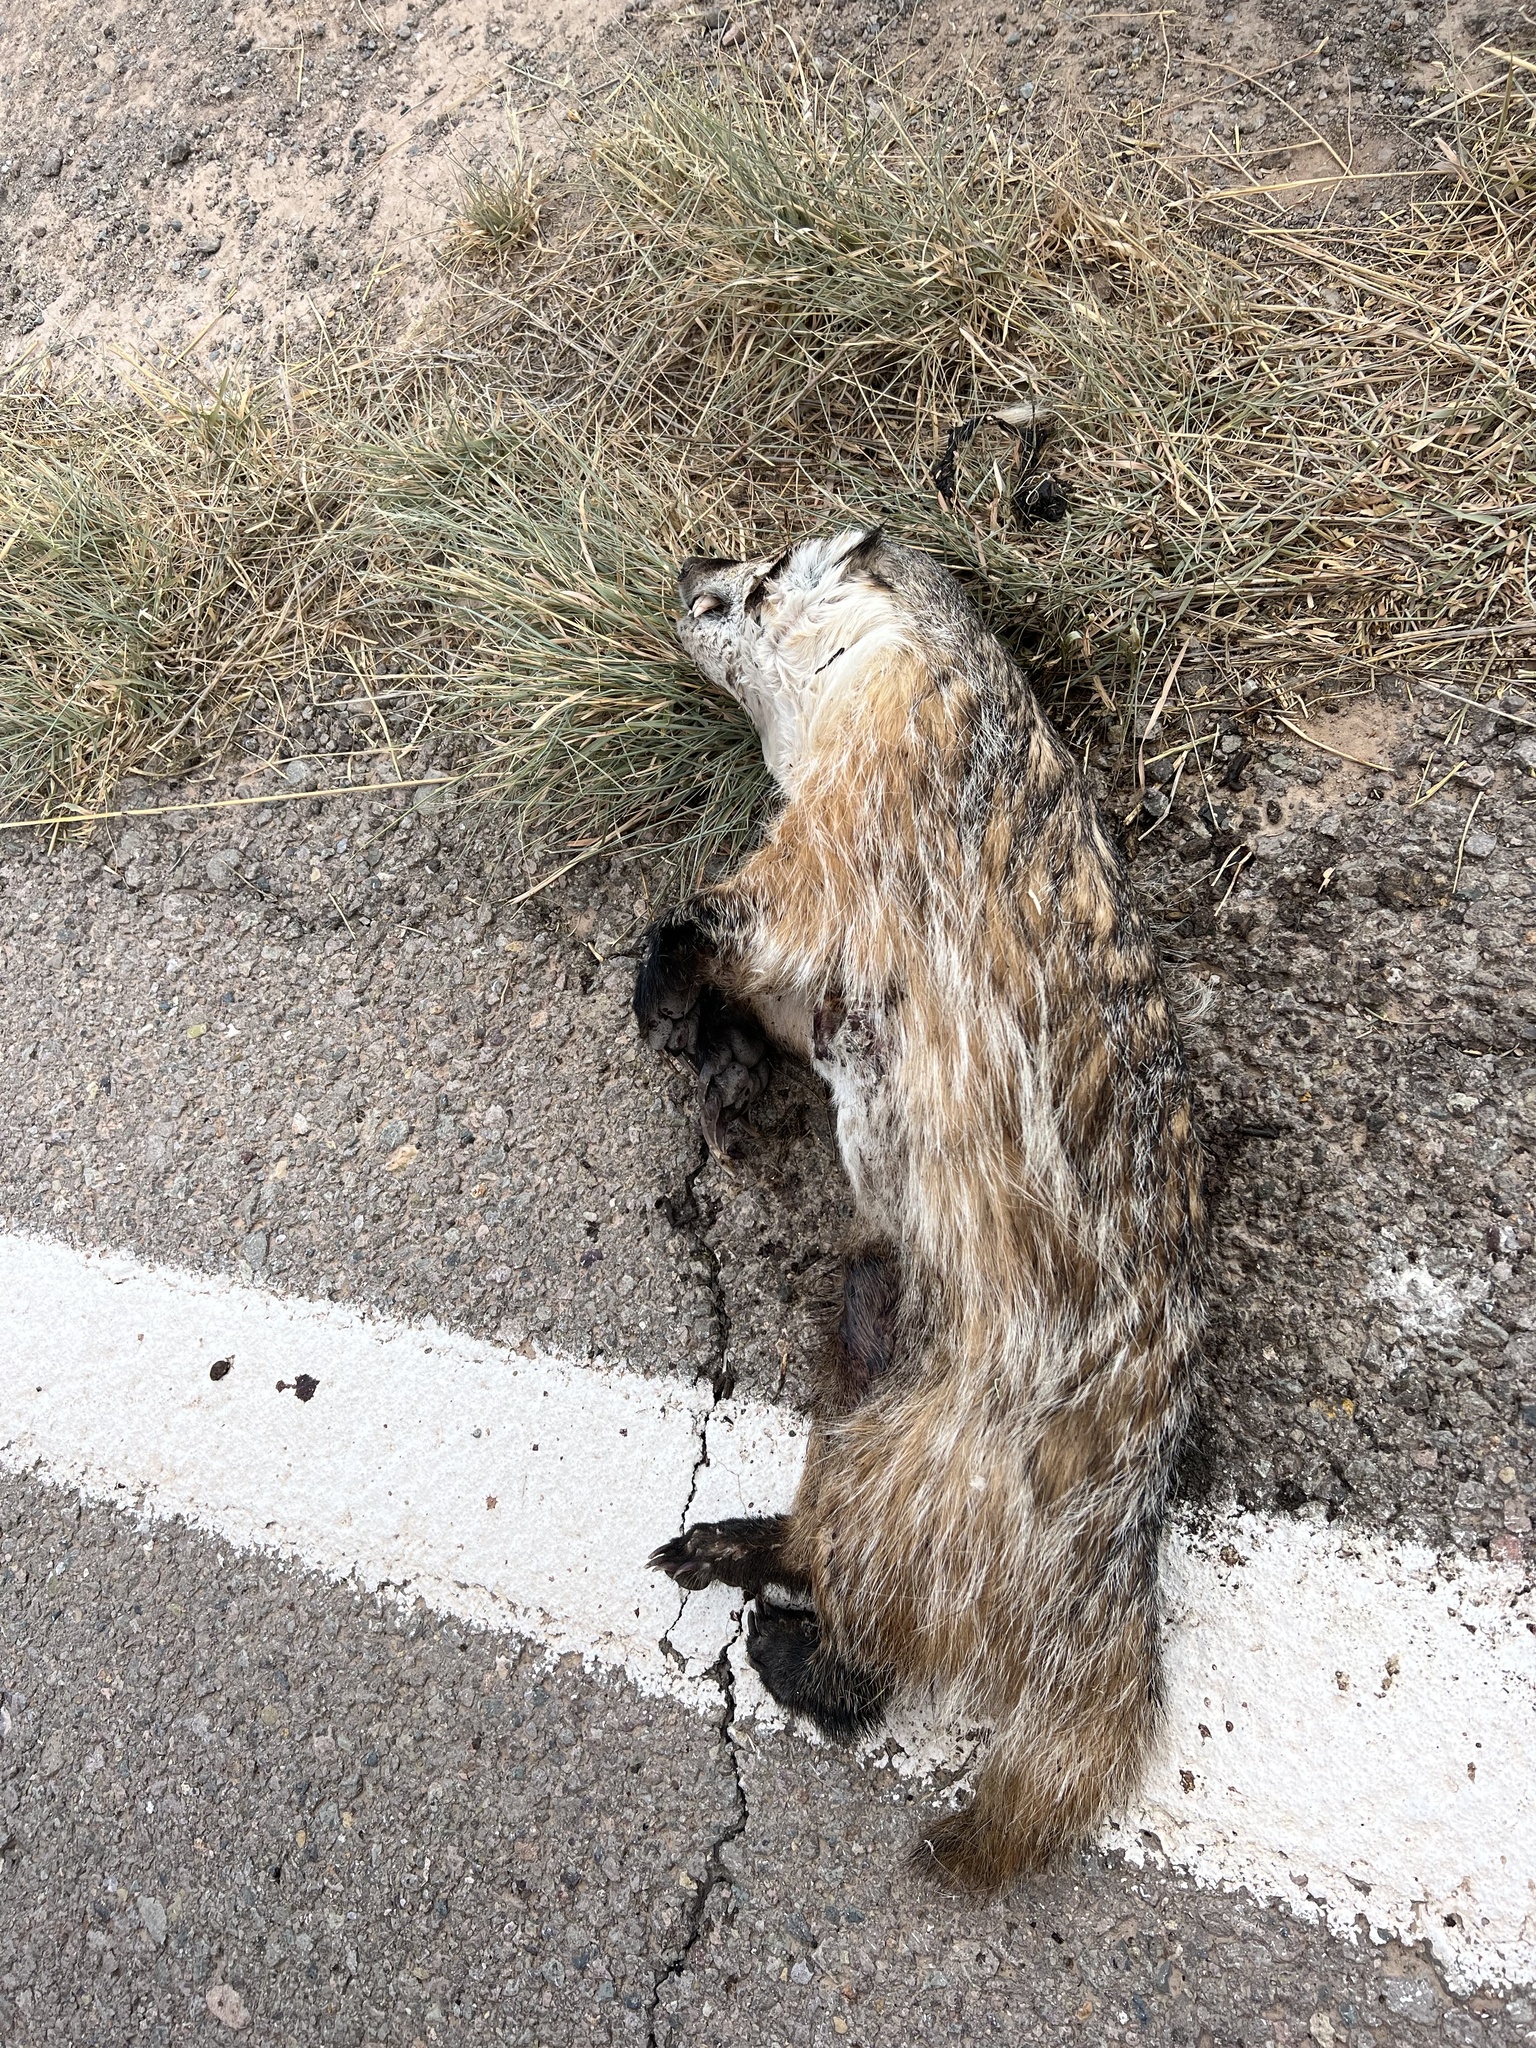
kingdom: Animalia
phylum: Chordata
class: Mammalia
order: Carnivora
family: Mustelidae
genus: Taxidea
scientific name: Taxidea taxus
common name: American badger
